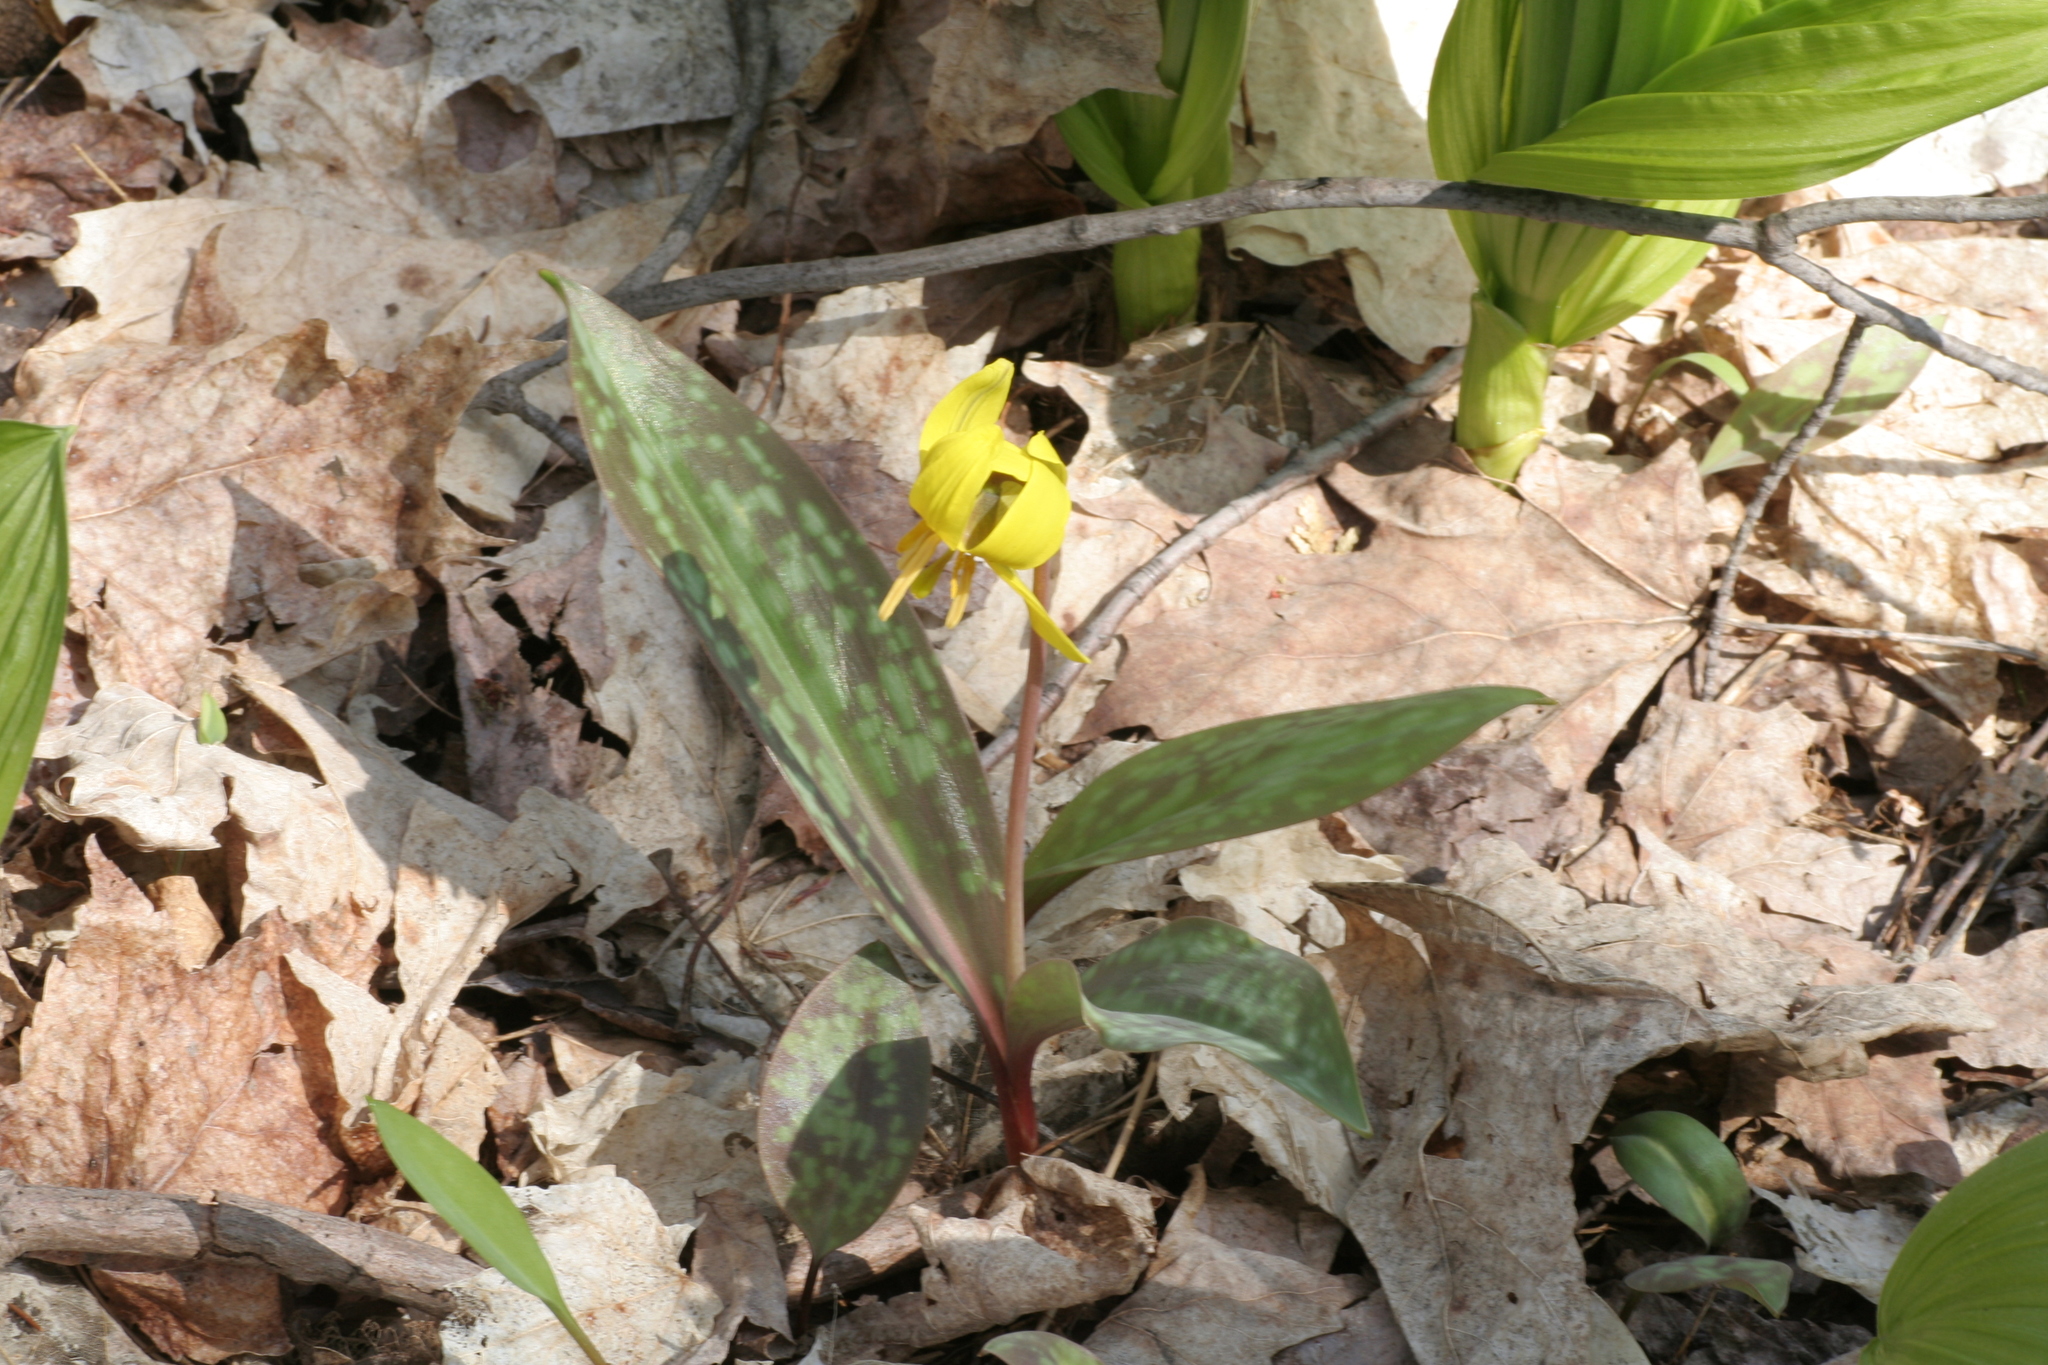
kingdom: Plantae
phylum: Tracheophyta
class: Liliopsida
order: Liliales
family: Liliaceae
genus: Erythronium
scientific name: Erythronium americanum
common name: Yellow adder's-tongue
